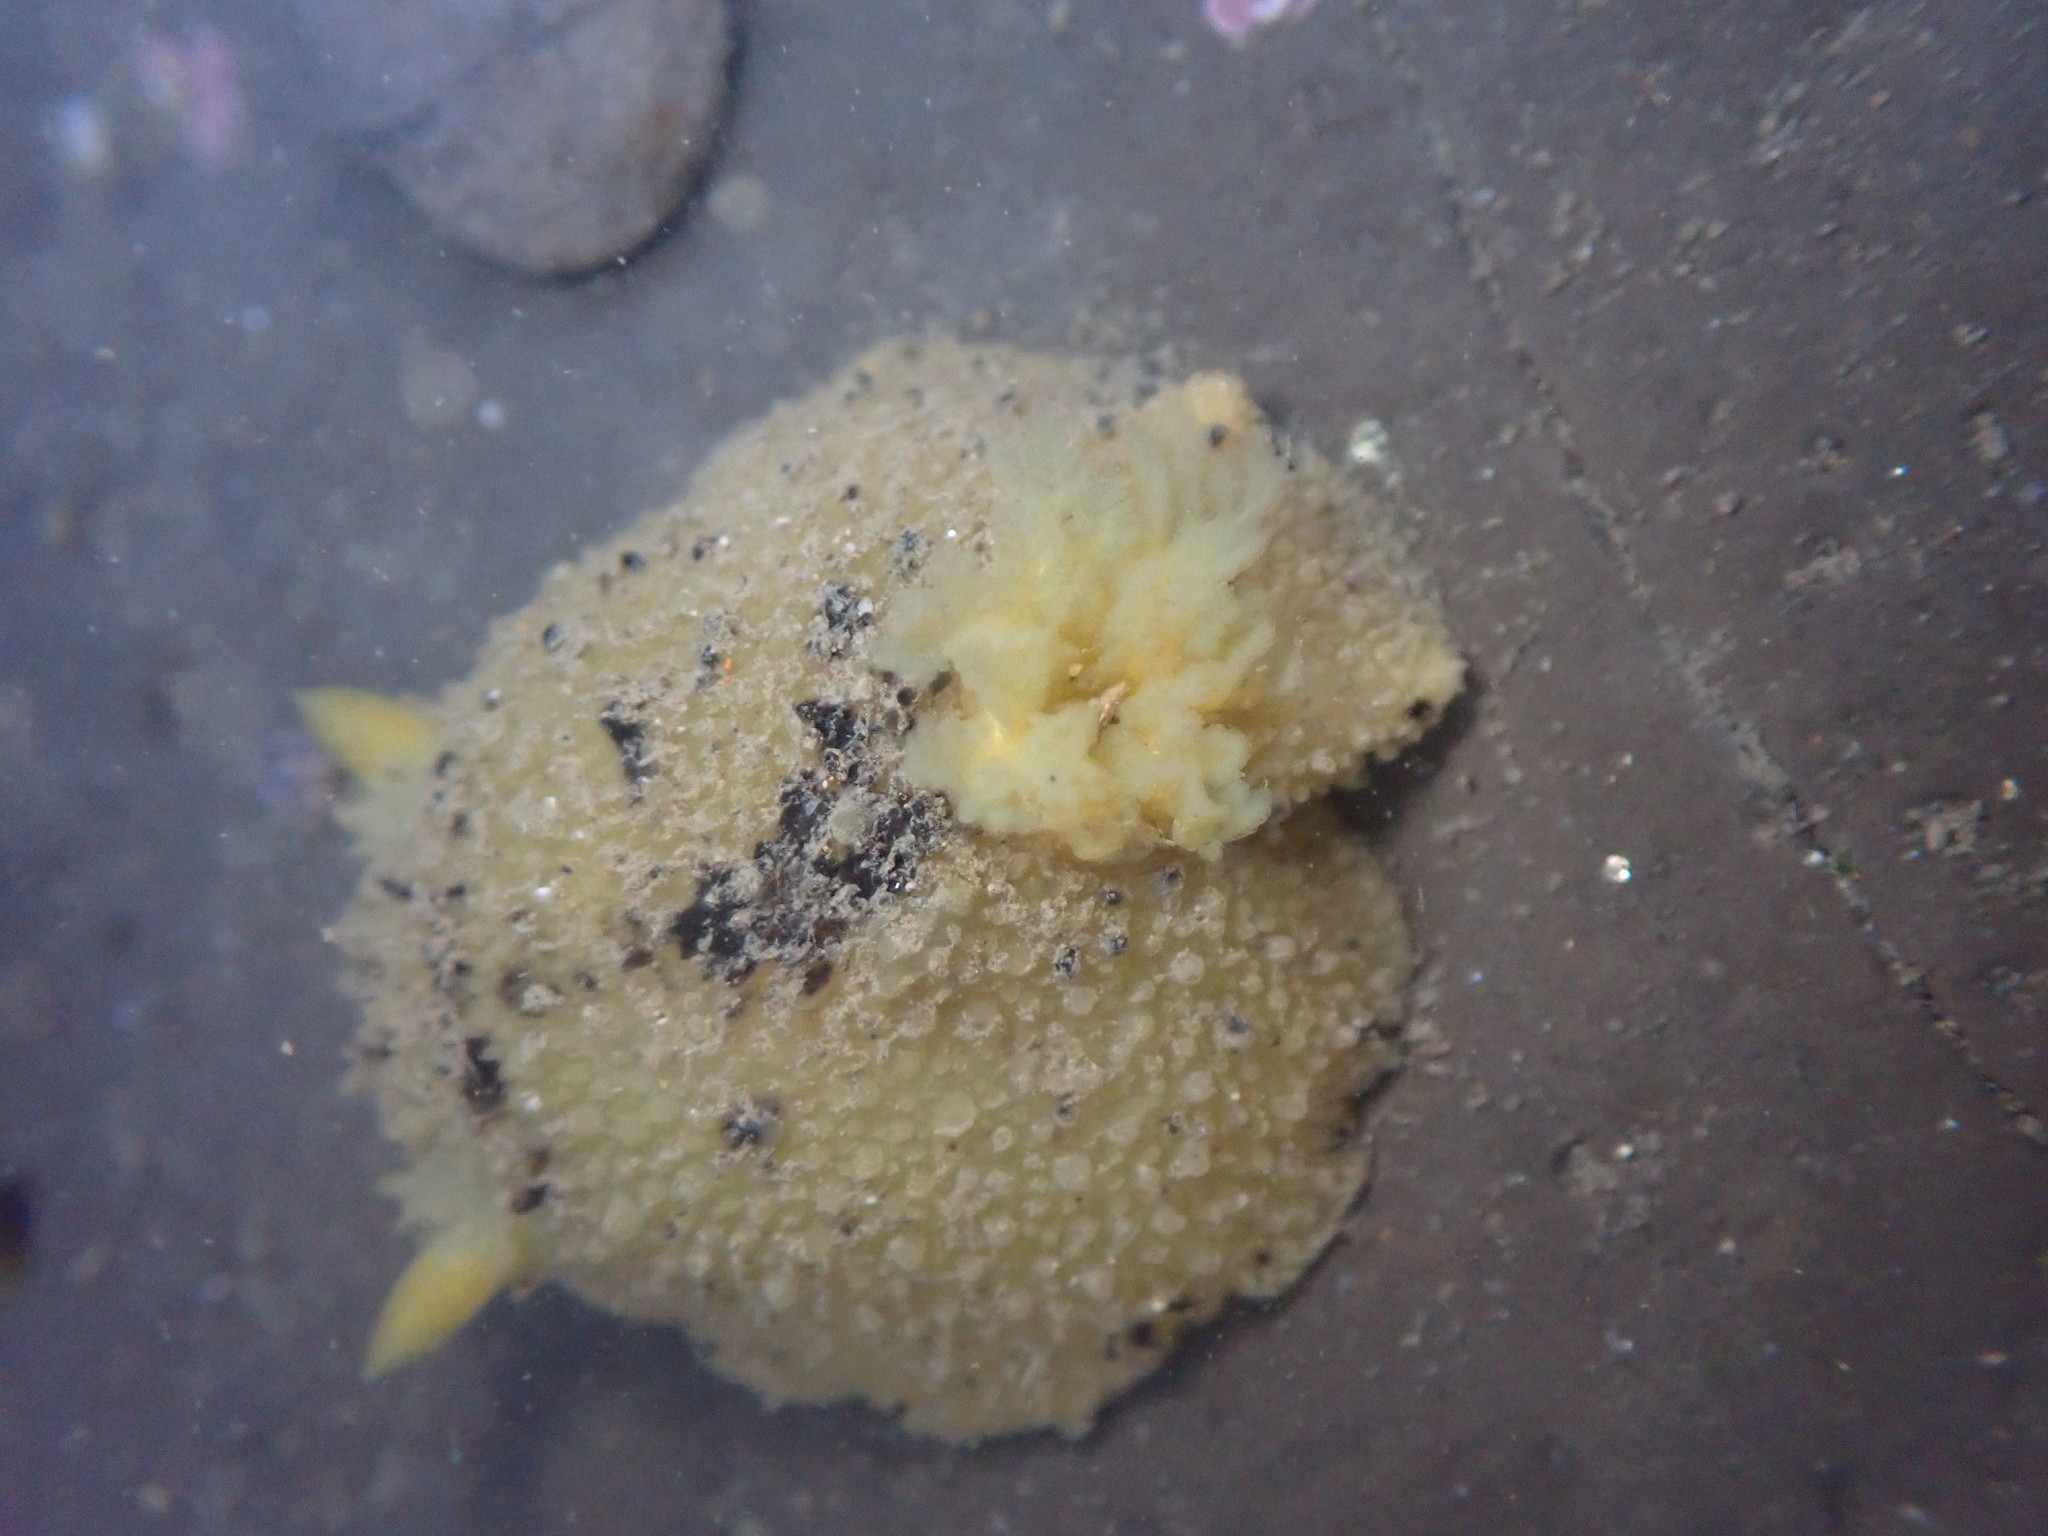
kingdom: Animalia
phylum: Mollusca
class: Gastropoda
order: Nudibranchia
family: Dorididae
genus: Doris
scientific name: Doris montereyensis
